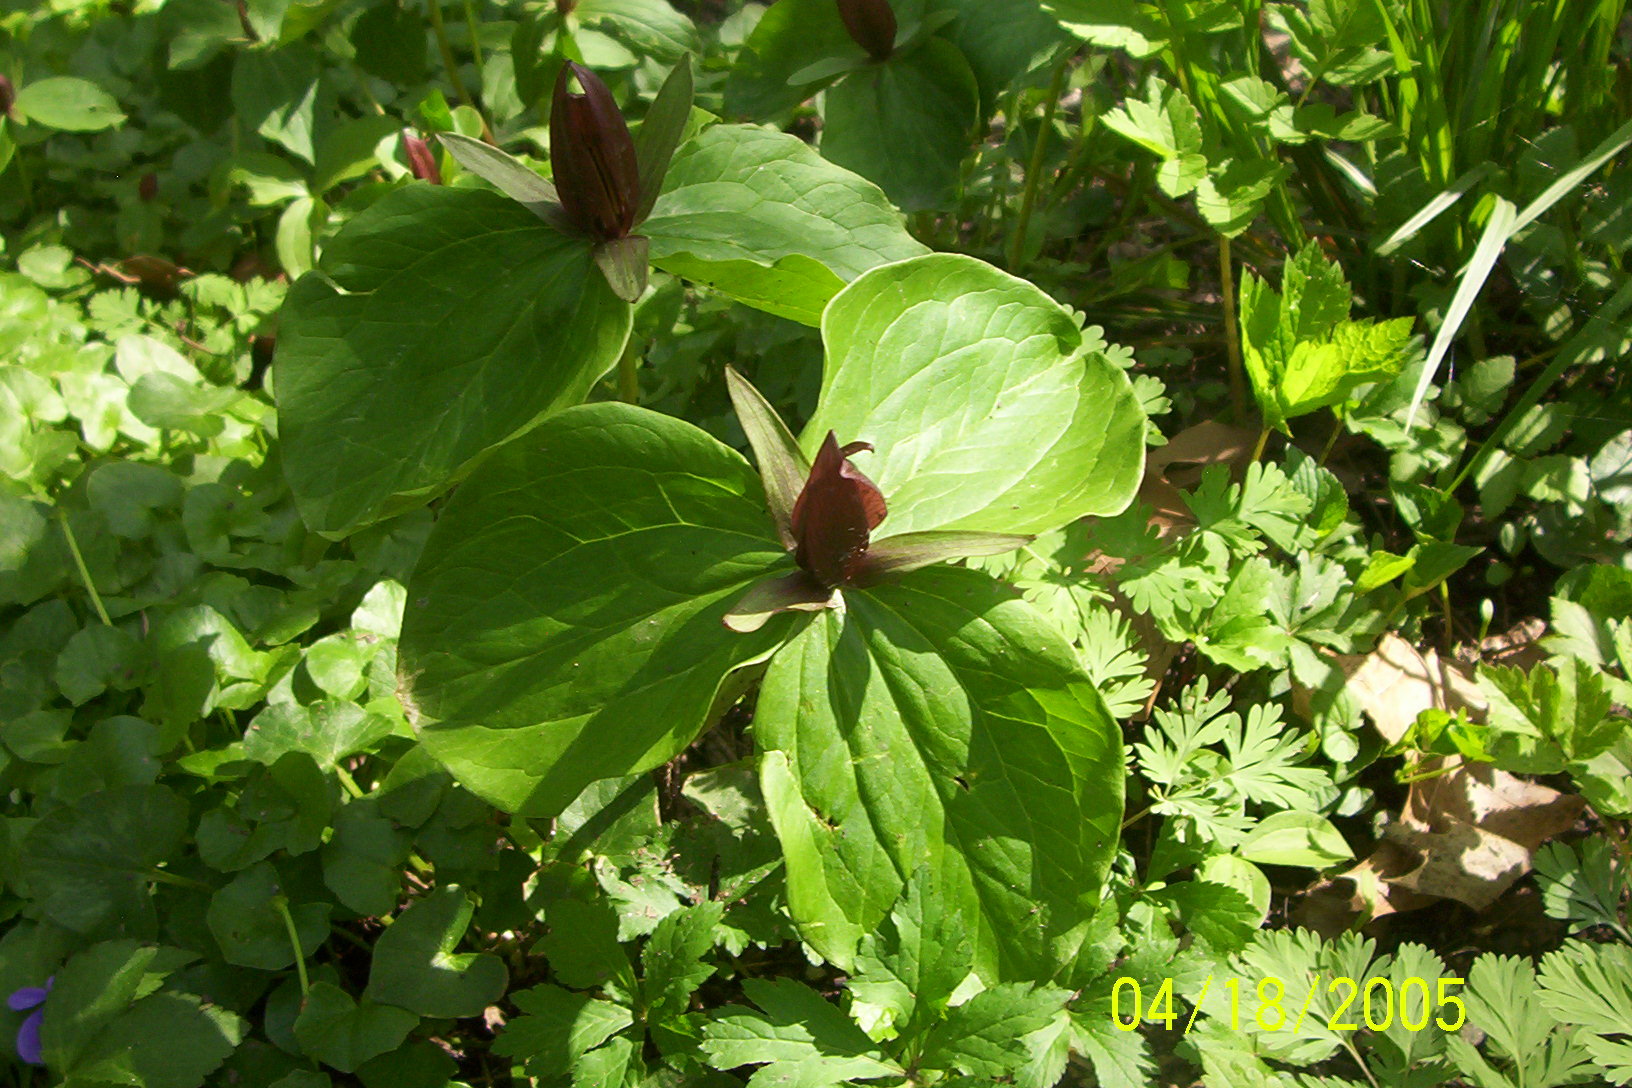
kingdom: Plantae
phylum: Tracheophyta
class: Liliopsida
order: Liliales
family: Melanthiaceae
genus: Trillium
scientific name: Trillium sessile
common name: Sessile trillium
